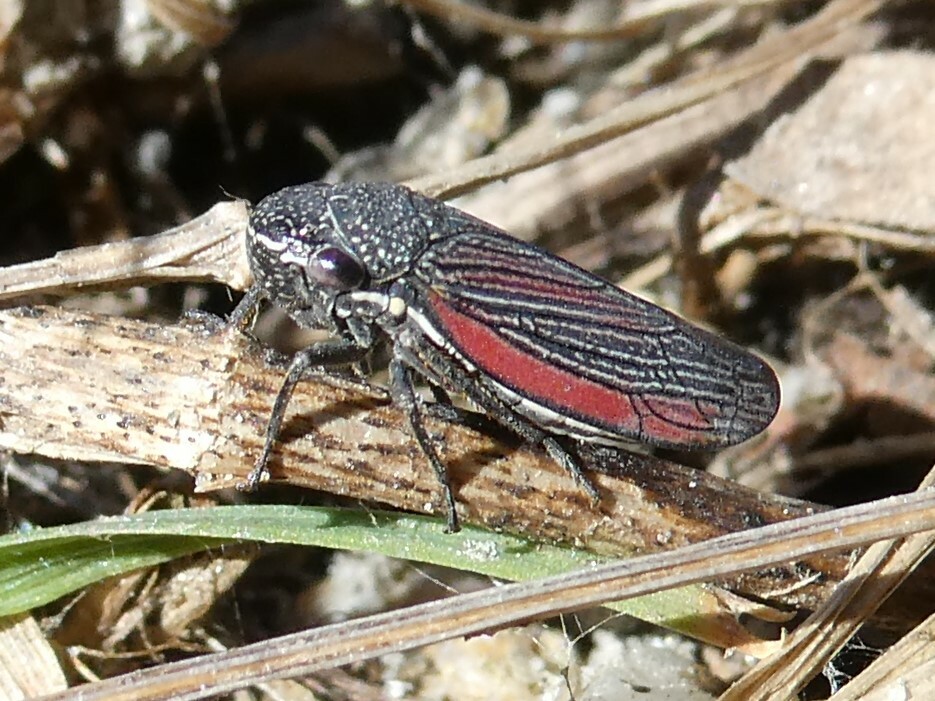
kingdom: Animalia
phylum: Arthropoda
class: Insecta
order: Hemiptera
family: Cicadellidae
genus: Cuerna
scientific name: Cuerna striata
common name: Striped leafhopper
